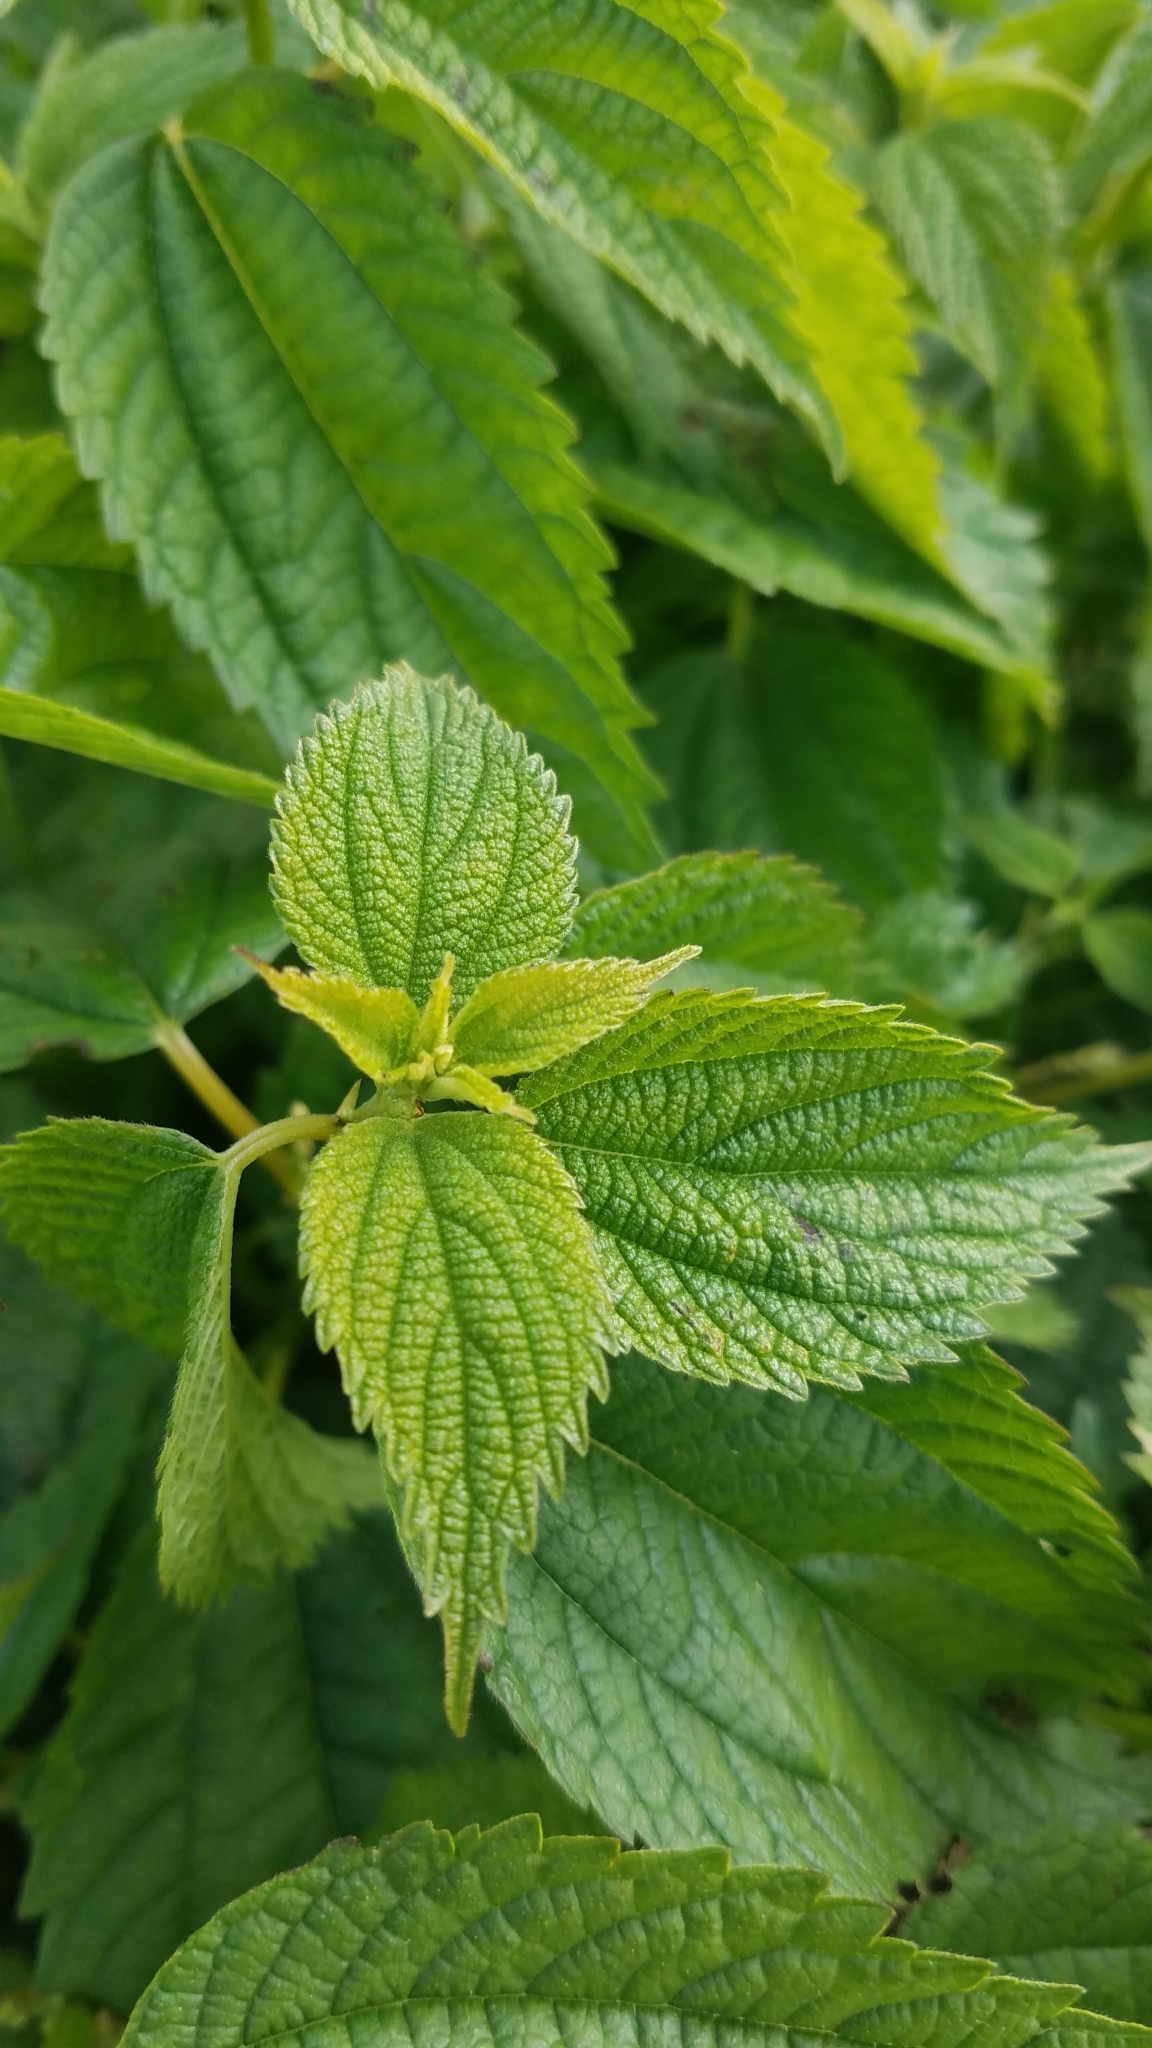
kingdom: Plantae
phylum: Tracheophyta
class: Magnoliopsida
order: Rosales
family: Urticaceae
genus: Boehmeria
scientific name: Boehmeria cylindrica
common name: Bog-hemp
